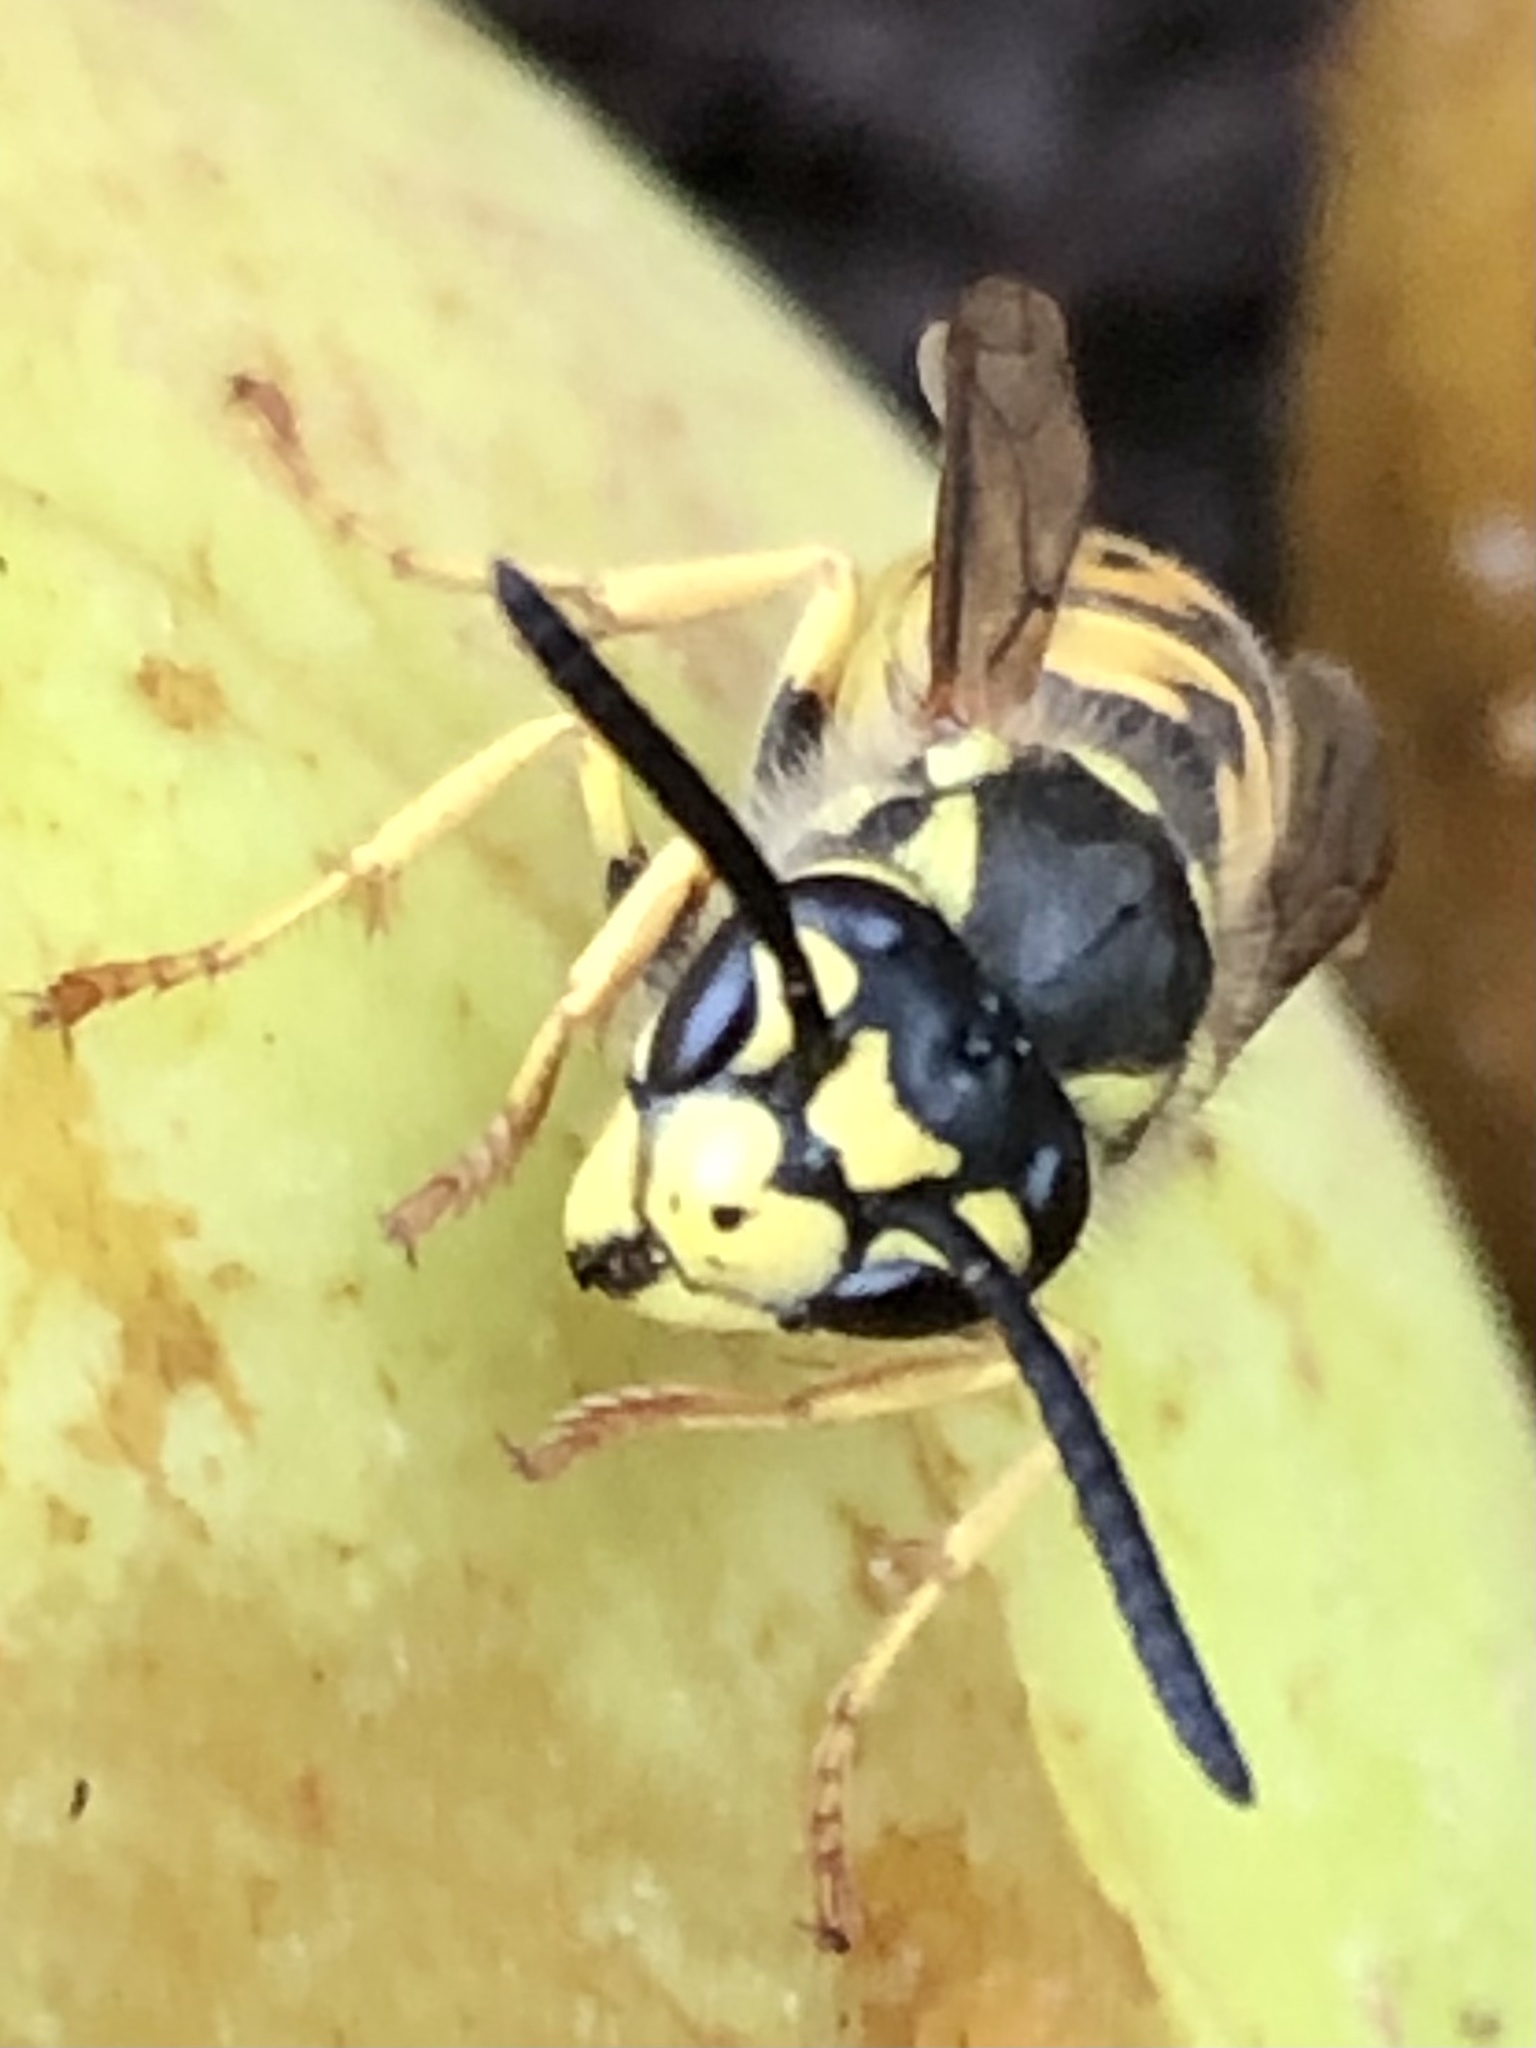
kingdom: Animalia
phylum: Arthropoda
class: Insecta
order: Hymenoptera
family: Vespidae
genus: Vespula
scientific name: Vespula germanica
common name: German wasp
